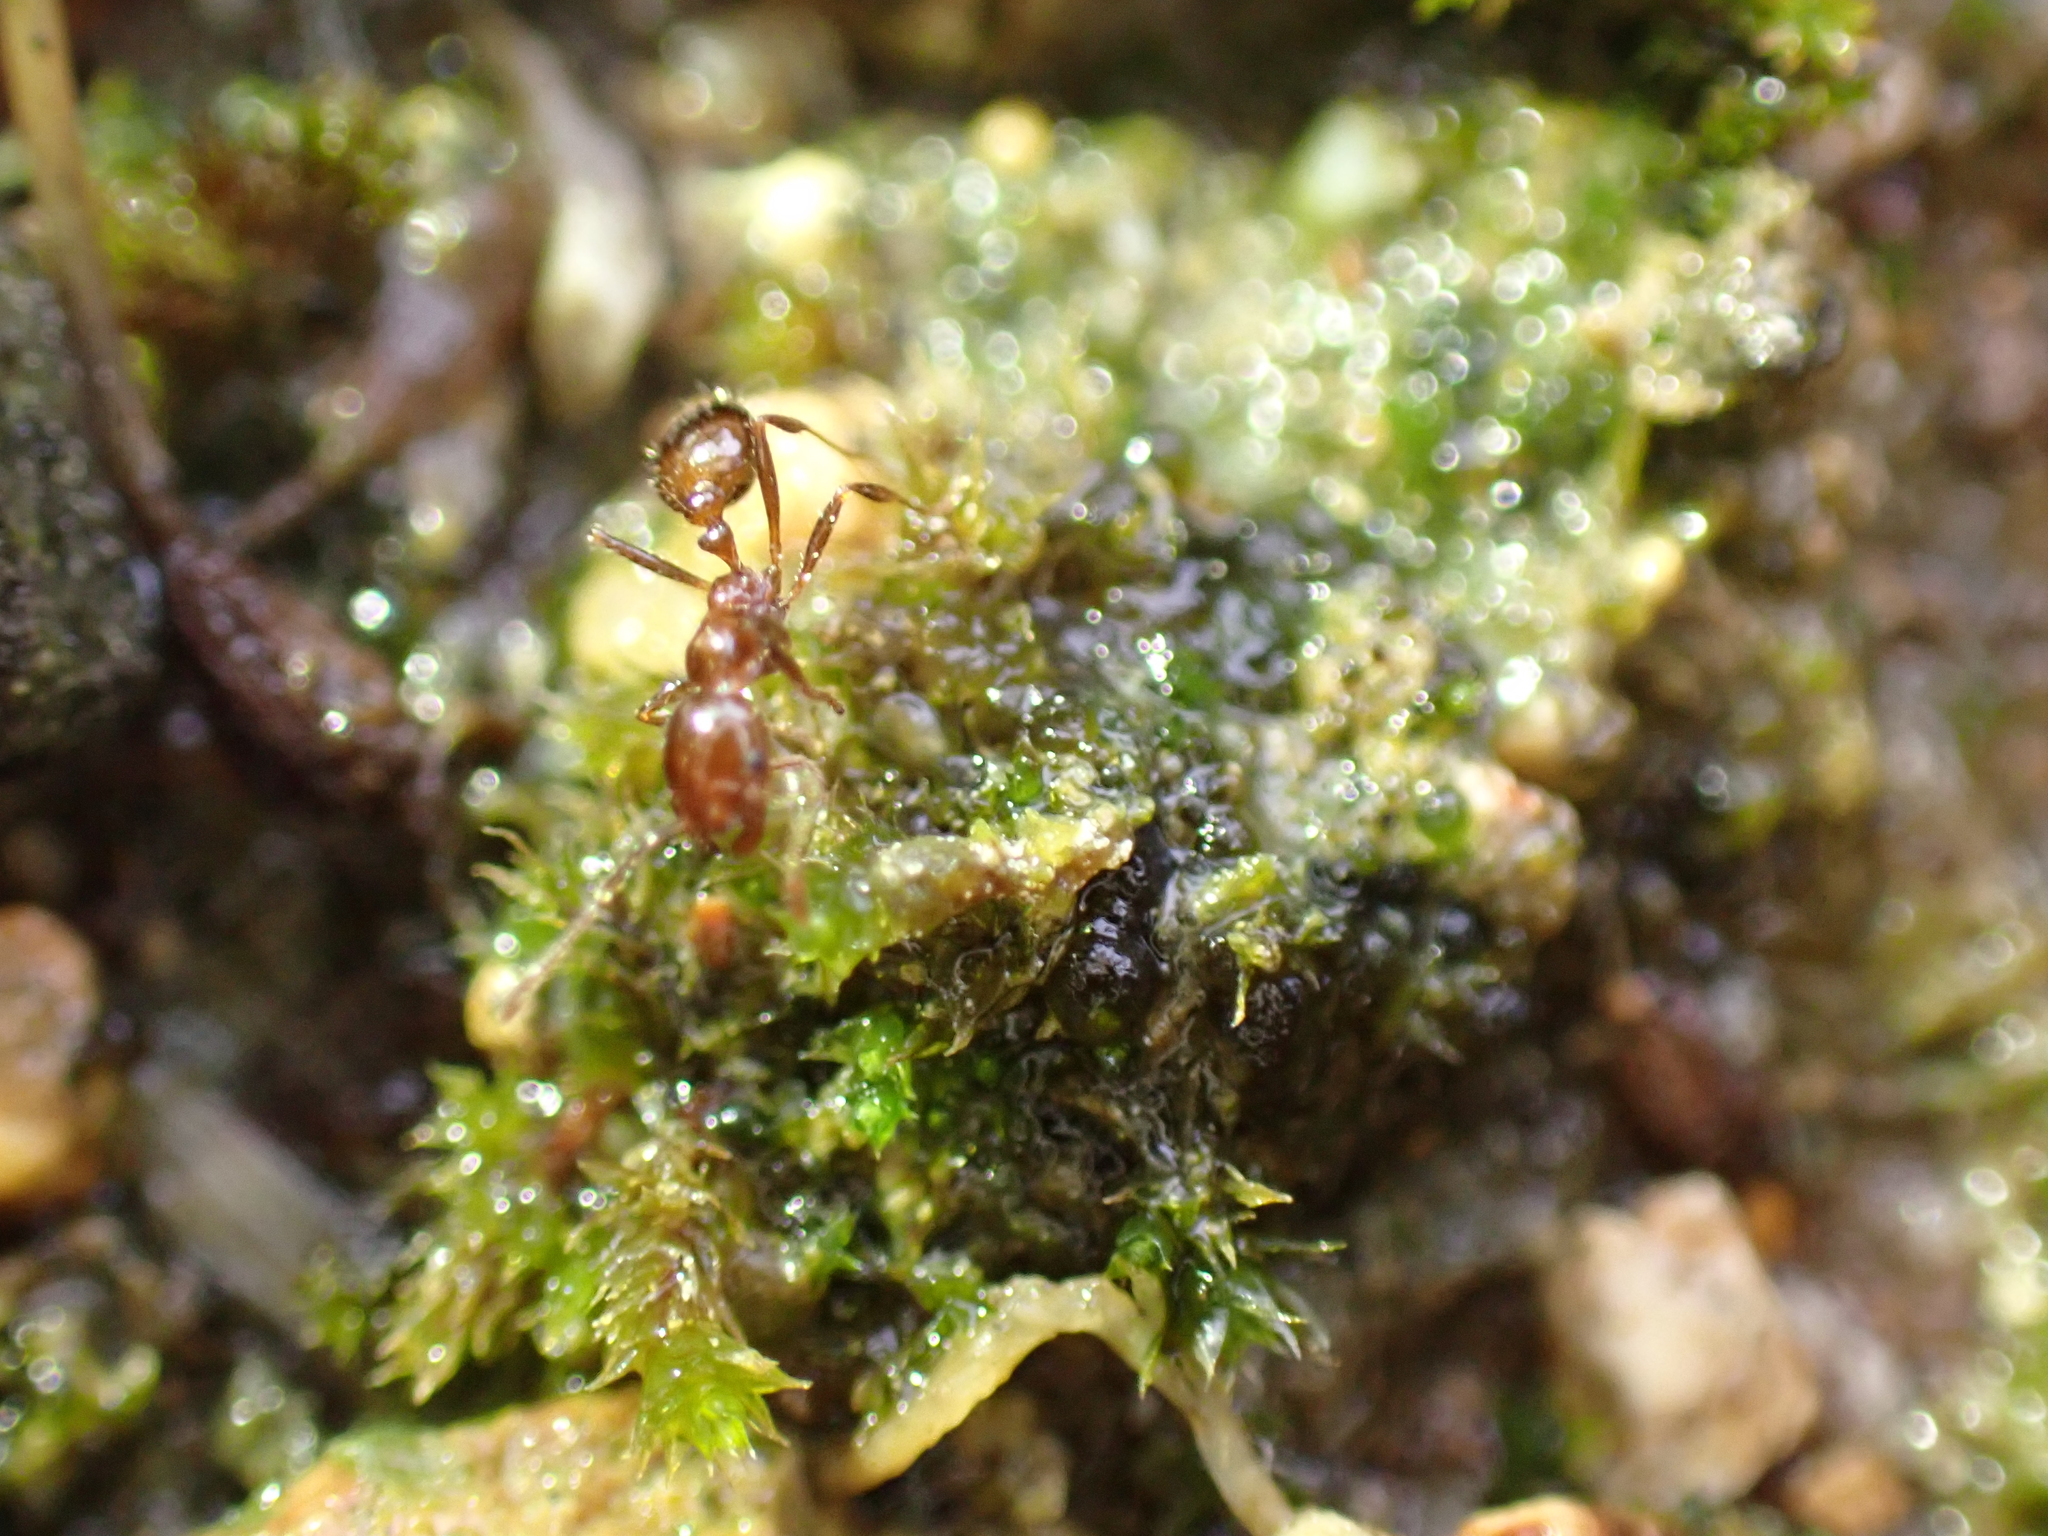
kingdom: Animalia
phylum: Arthropoda
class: Insecta
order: Hymenoptera
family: Formicidae
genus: Solenopsis
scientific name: Solenopsis
